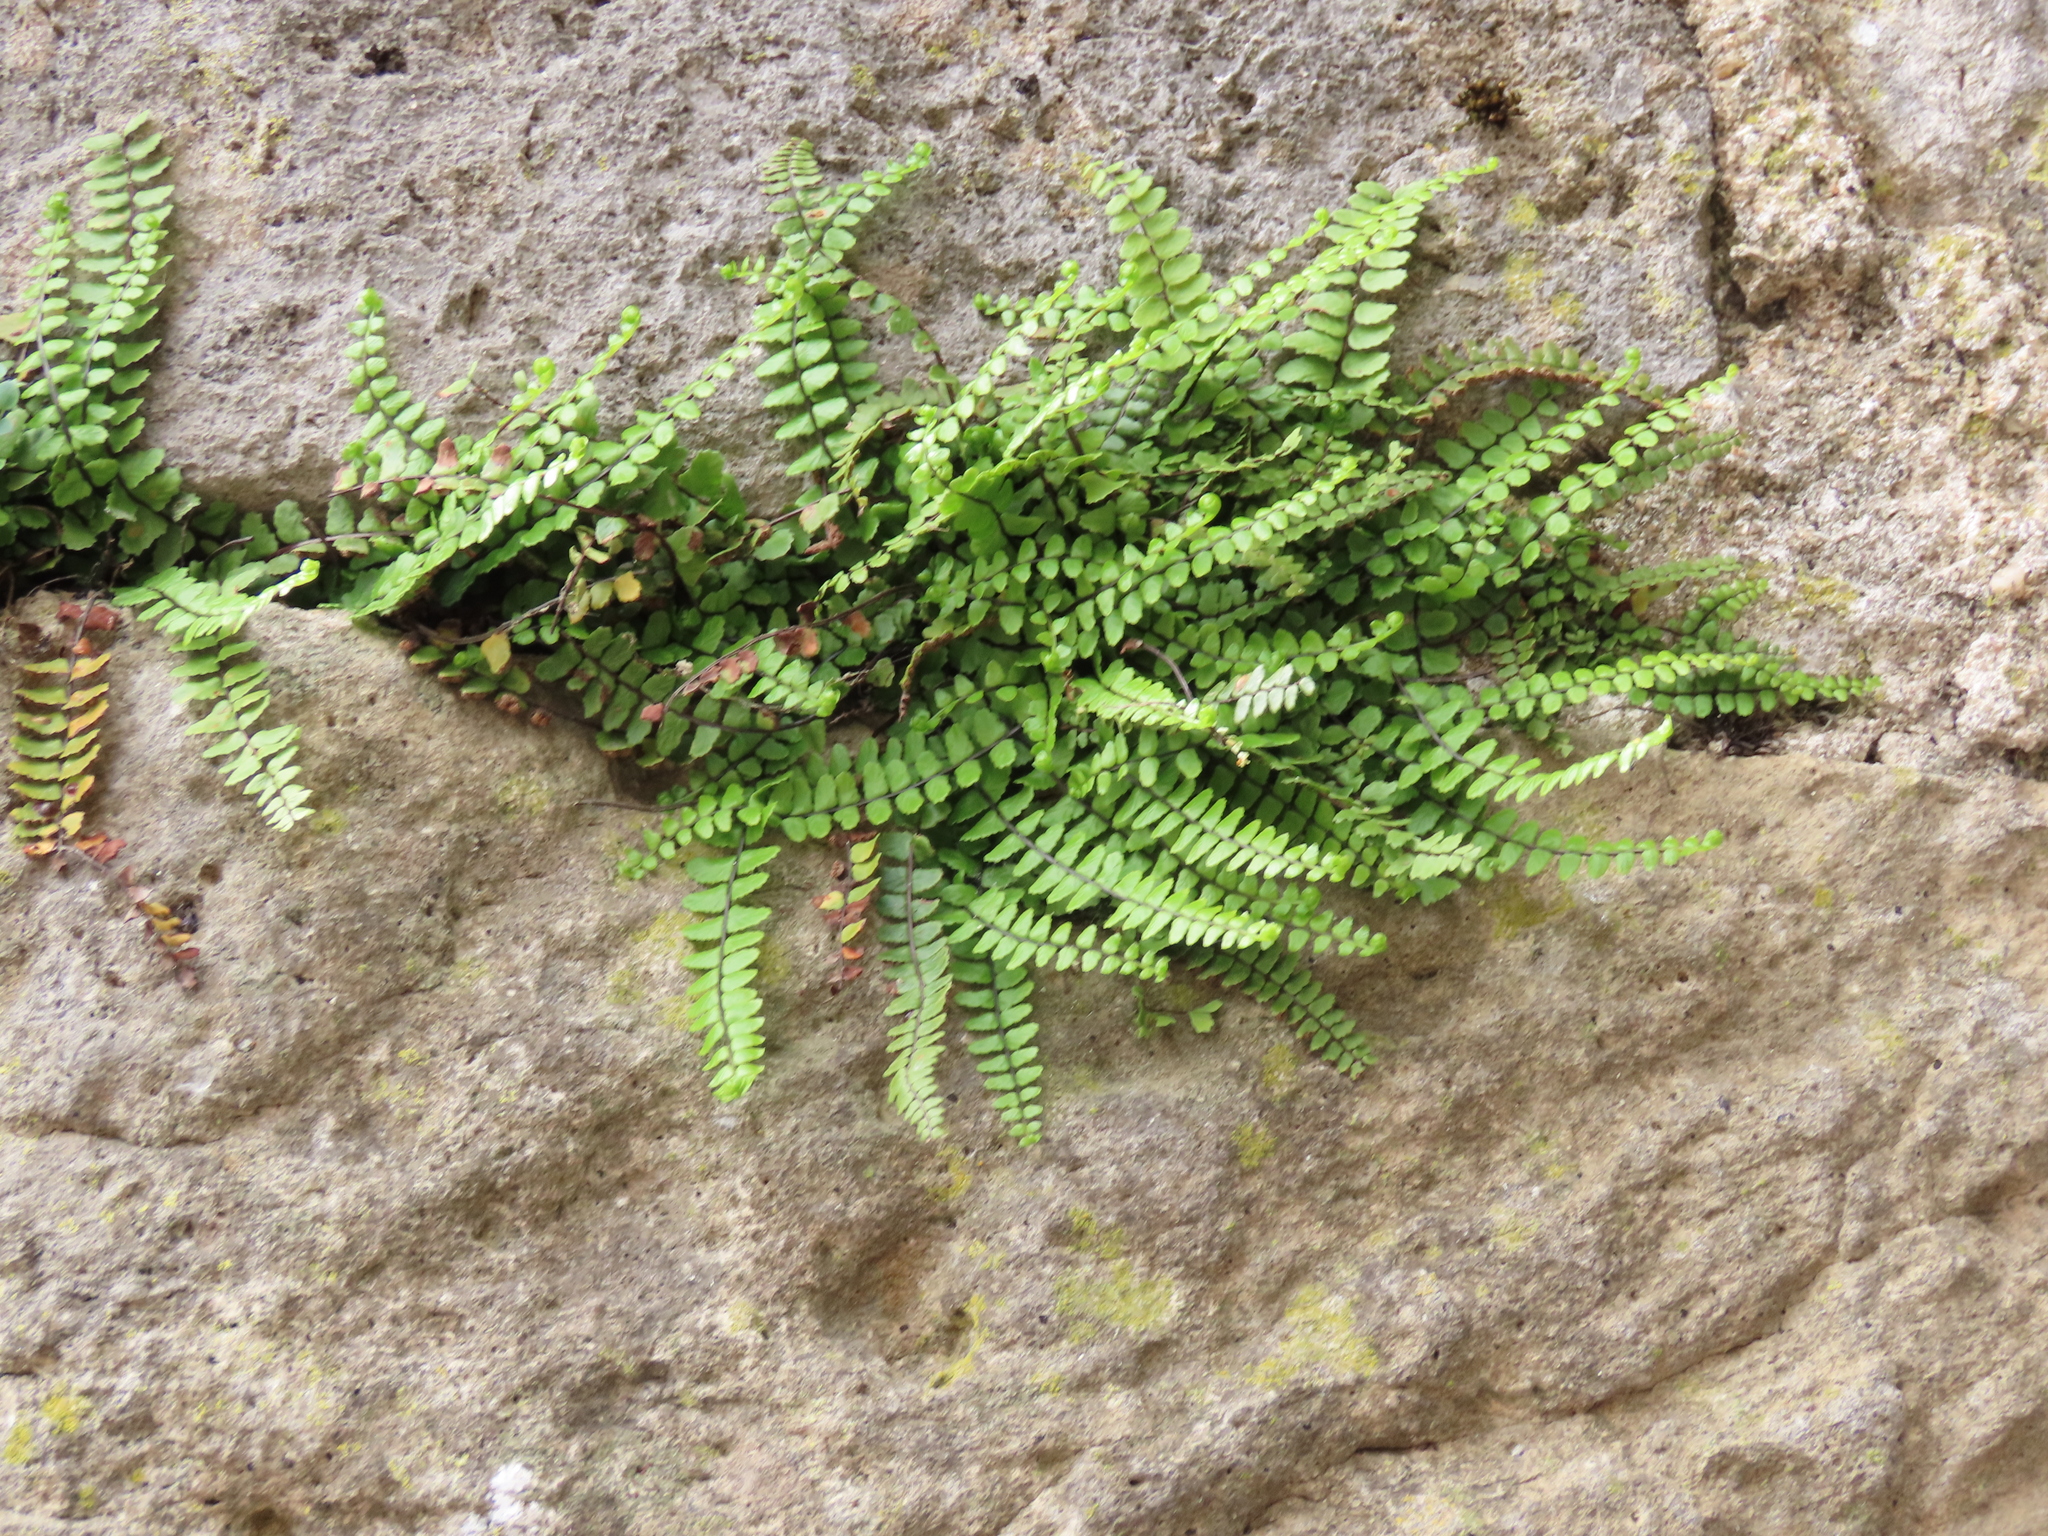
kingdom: Plantae
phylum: Tracheophyta
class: Polypodiopsida
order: Polypodiales
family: Aspleniaceae
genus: Asplenium
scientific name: Asplenium trichomanes
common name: Maidenhair spleenwort
